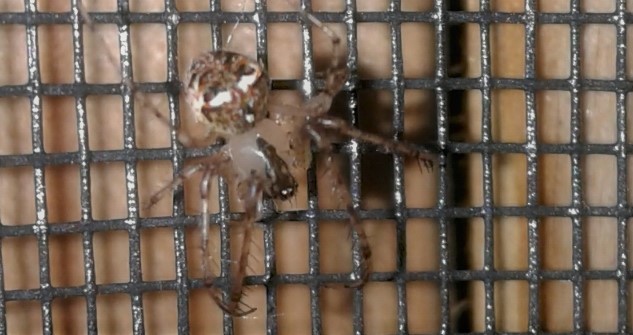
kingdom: Animalia
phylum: Arthropoda
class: Arachnida
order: Araneae
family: Mimetidae
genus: Mimetus
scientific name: Mimetus puritanus
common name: Common pirate spider
